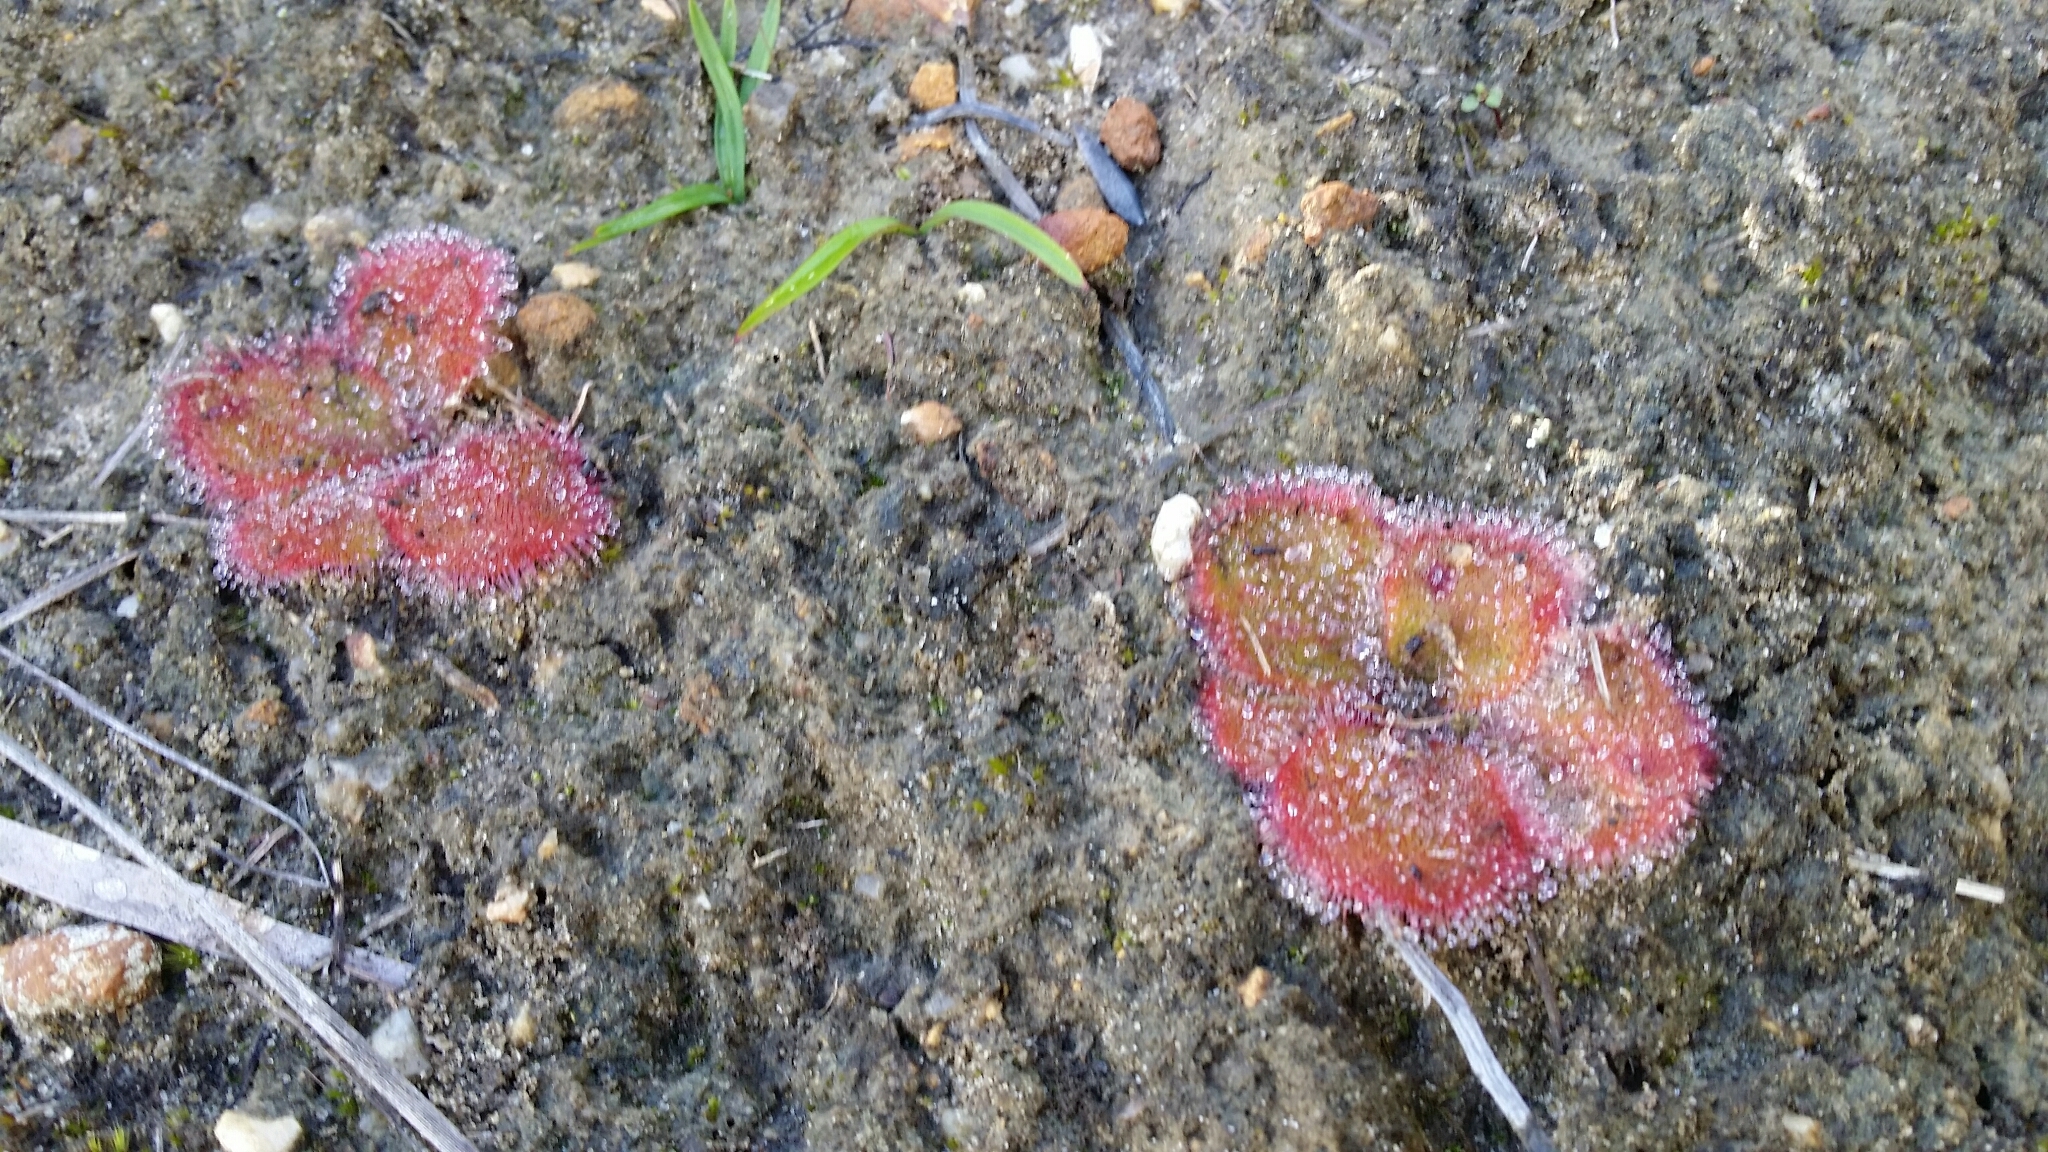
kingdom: Plantae
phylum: Tracheophyta
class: Magnoliopsida
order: Caryophyllales
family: Droseraceae
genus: Drosera
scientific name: Drosera erythrorhiza
